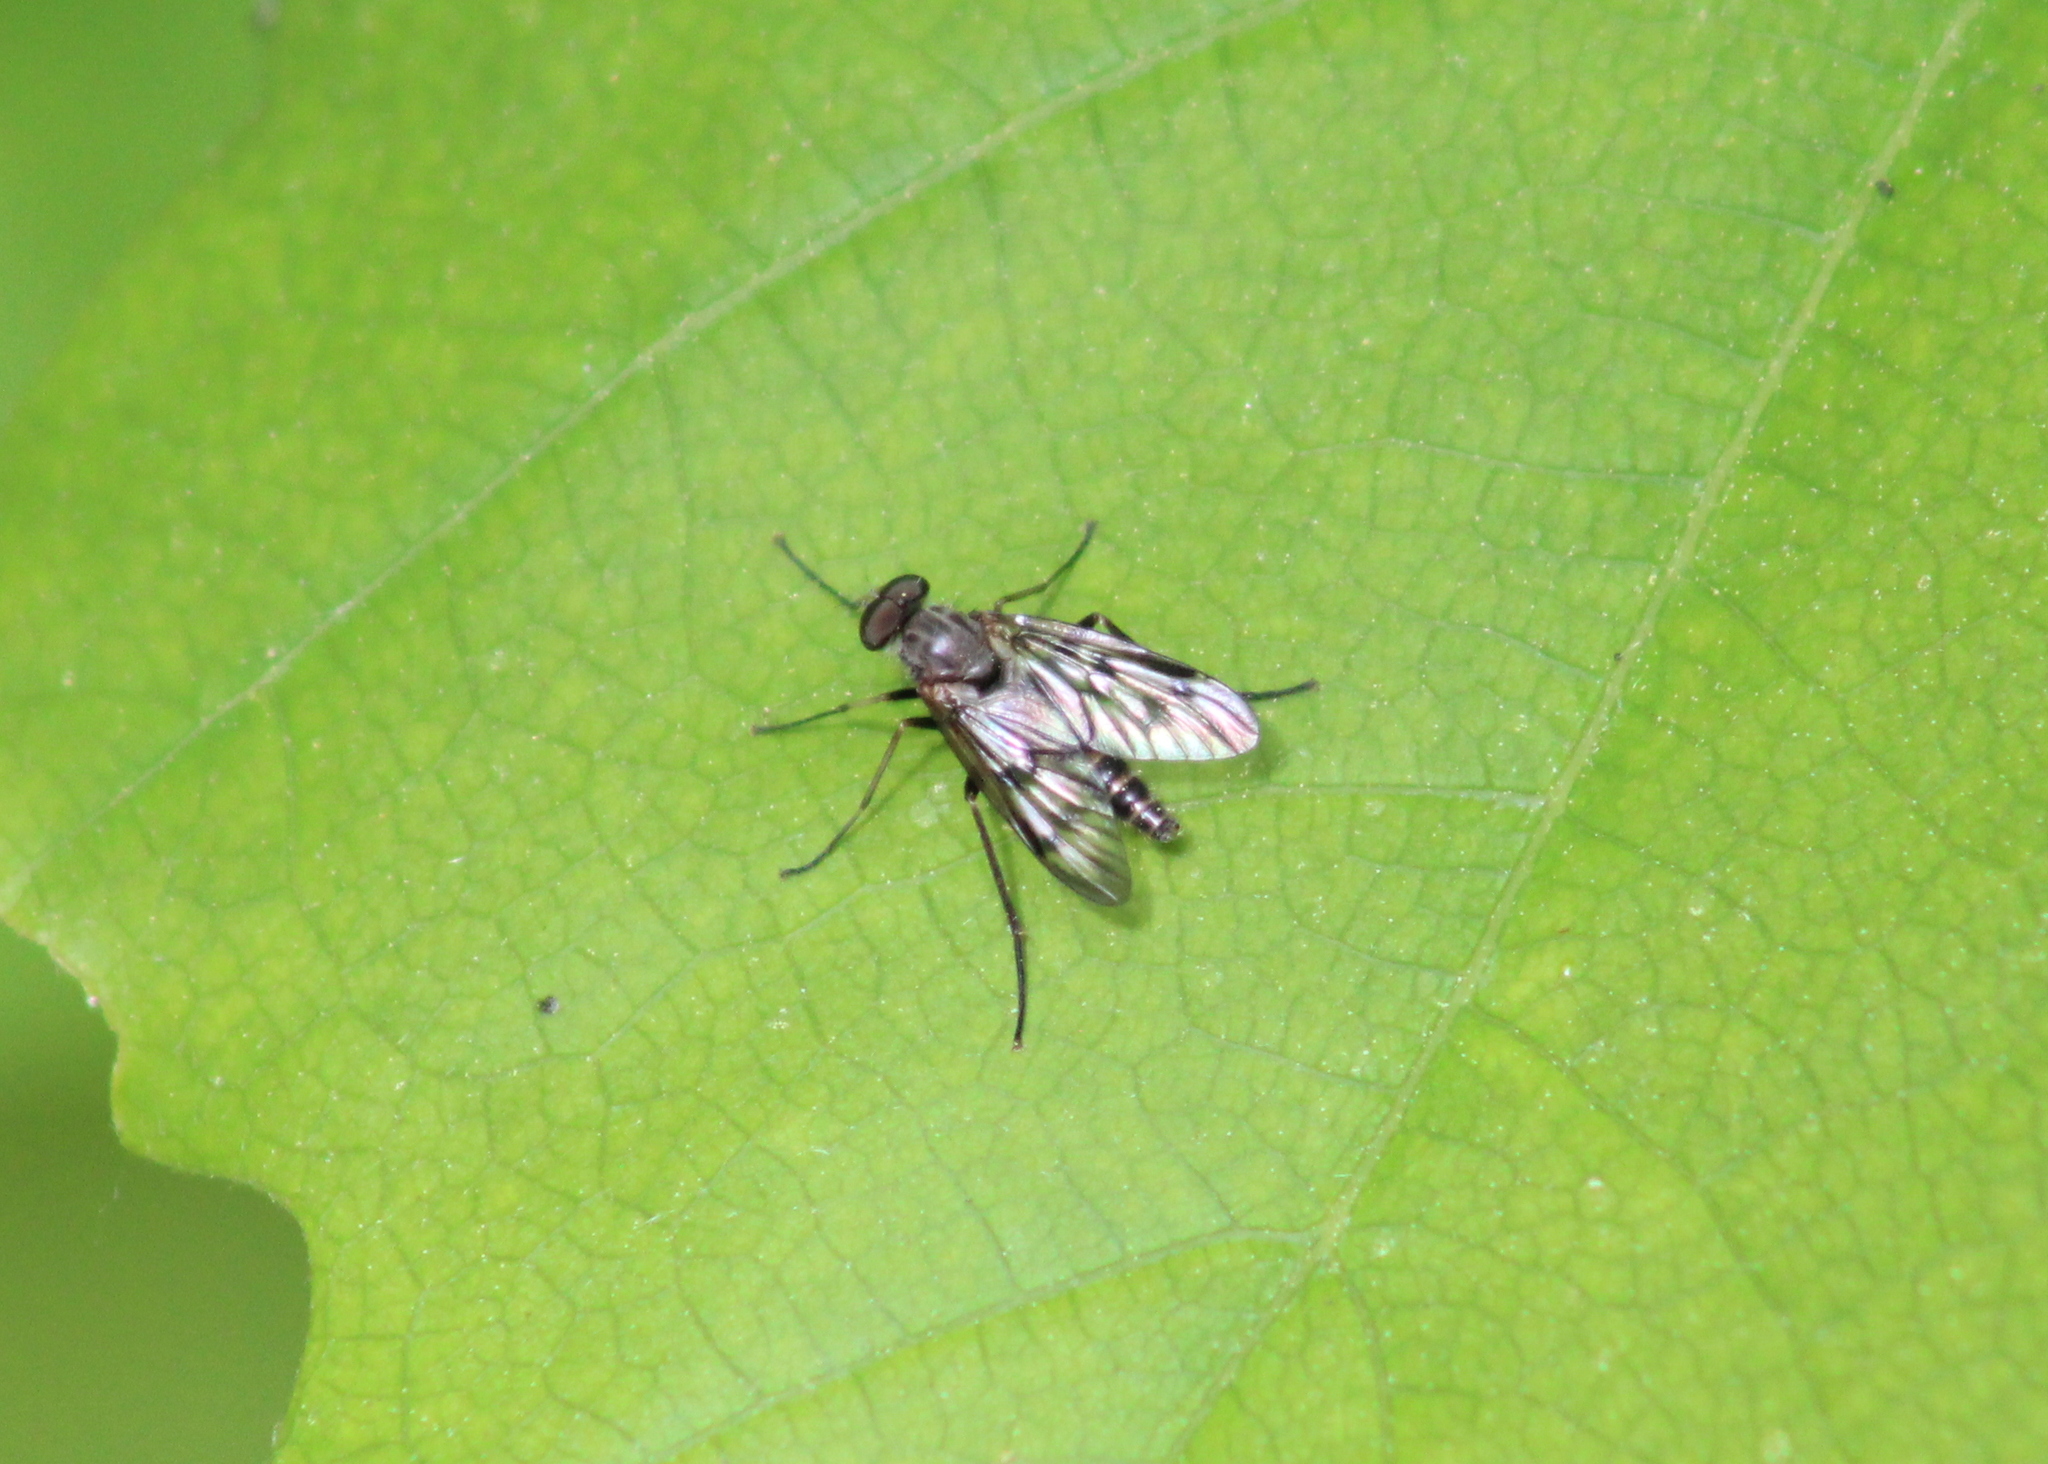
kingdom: Animalia
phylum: Arthropoda
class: Insecta
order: Diptera
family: Rhagionidae
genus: Rhagio
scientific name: Rhagio mystaceus
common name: Common snipe fly
